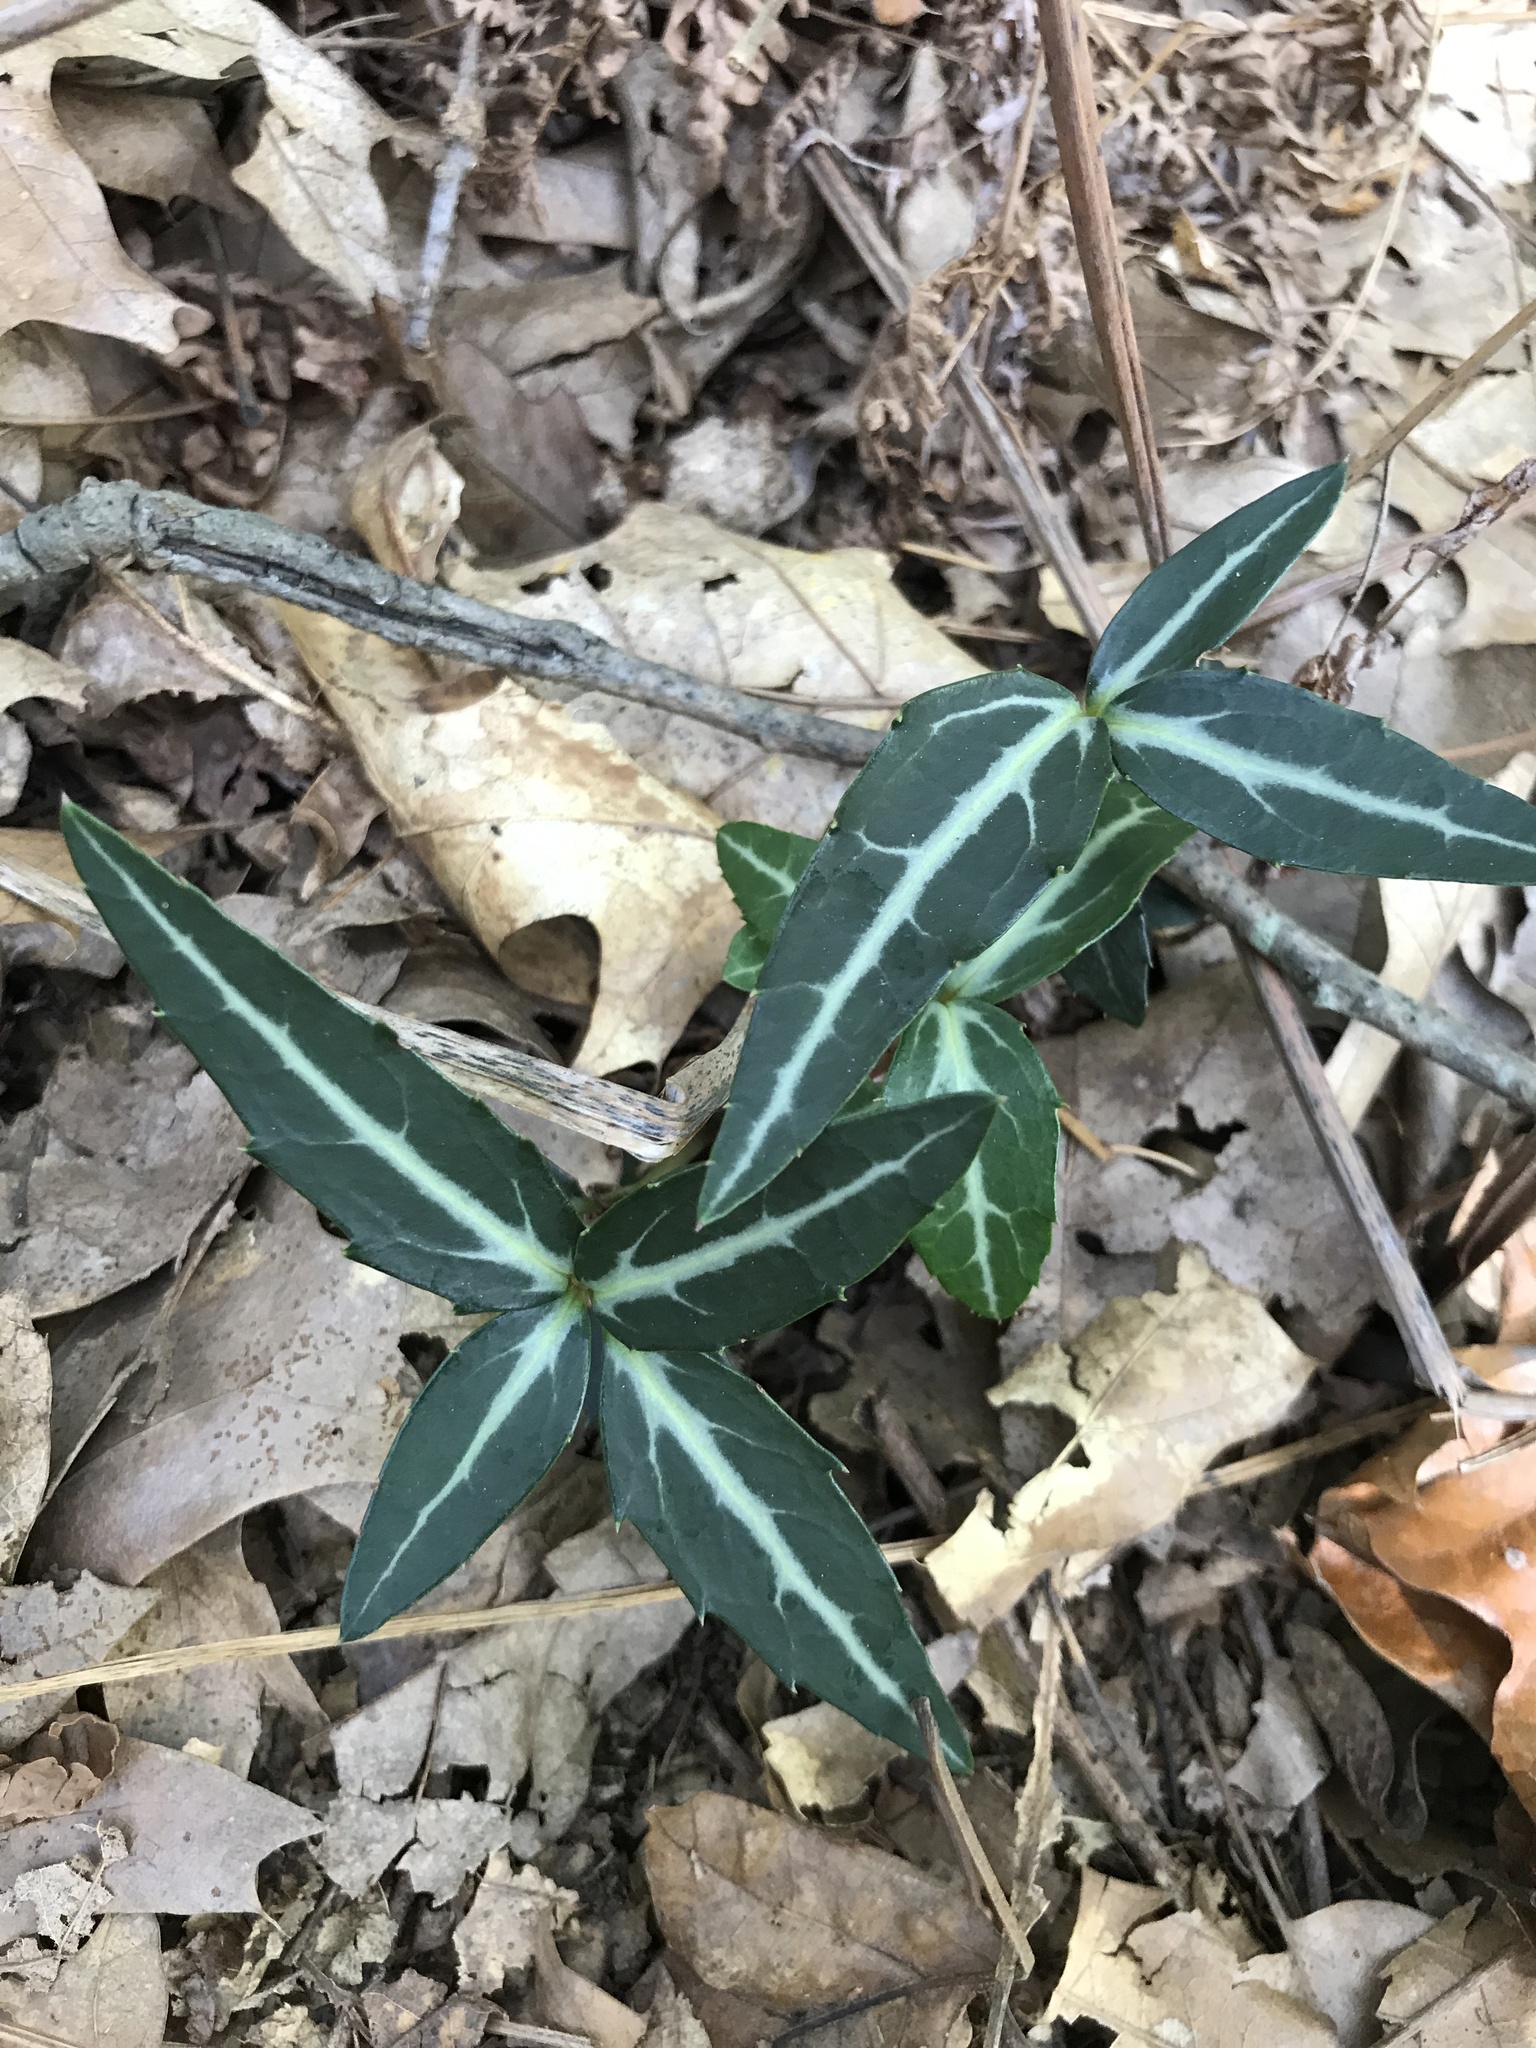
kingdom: Plantae
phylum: Tracheophyta
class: Magnoliopsida
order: Ericales
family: Ericaceae
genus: Chimaphila
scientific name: Chimaphila maculata
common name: Spotted pipsissewa
